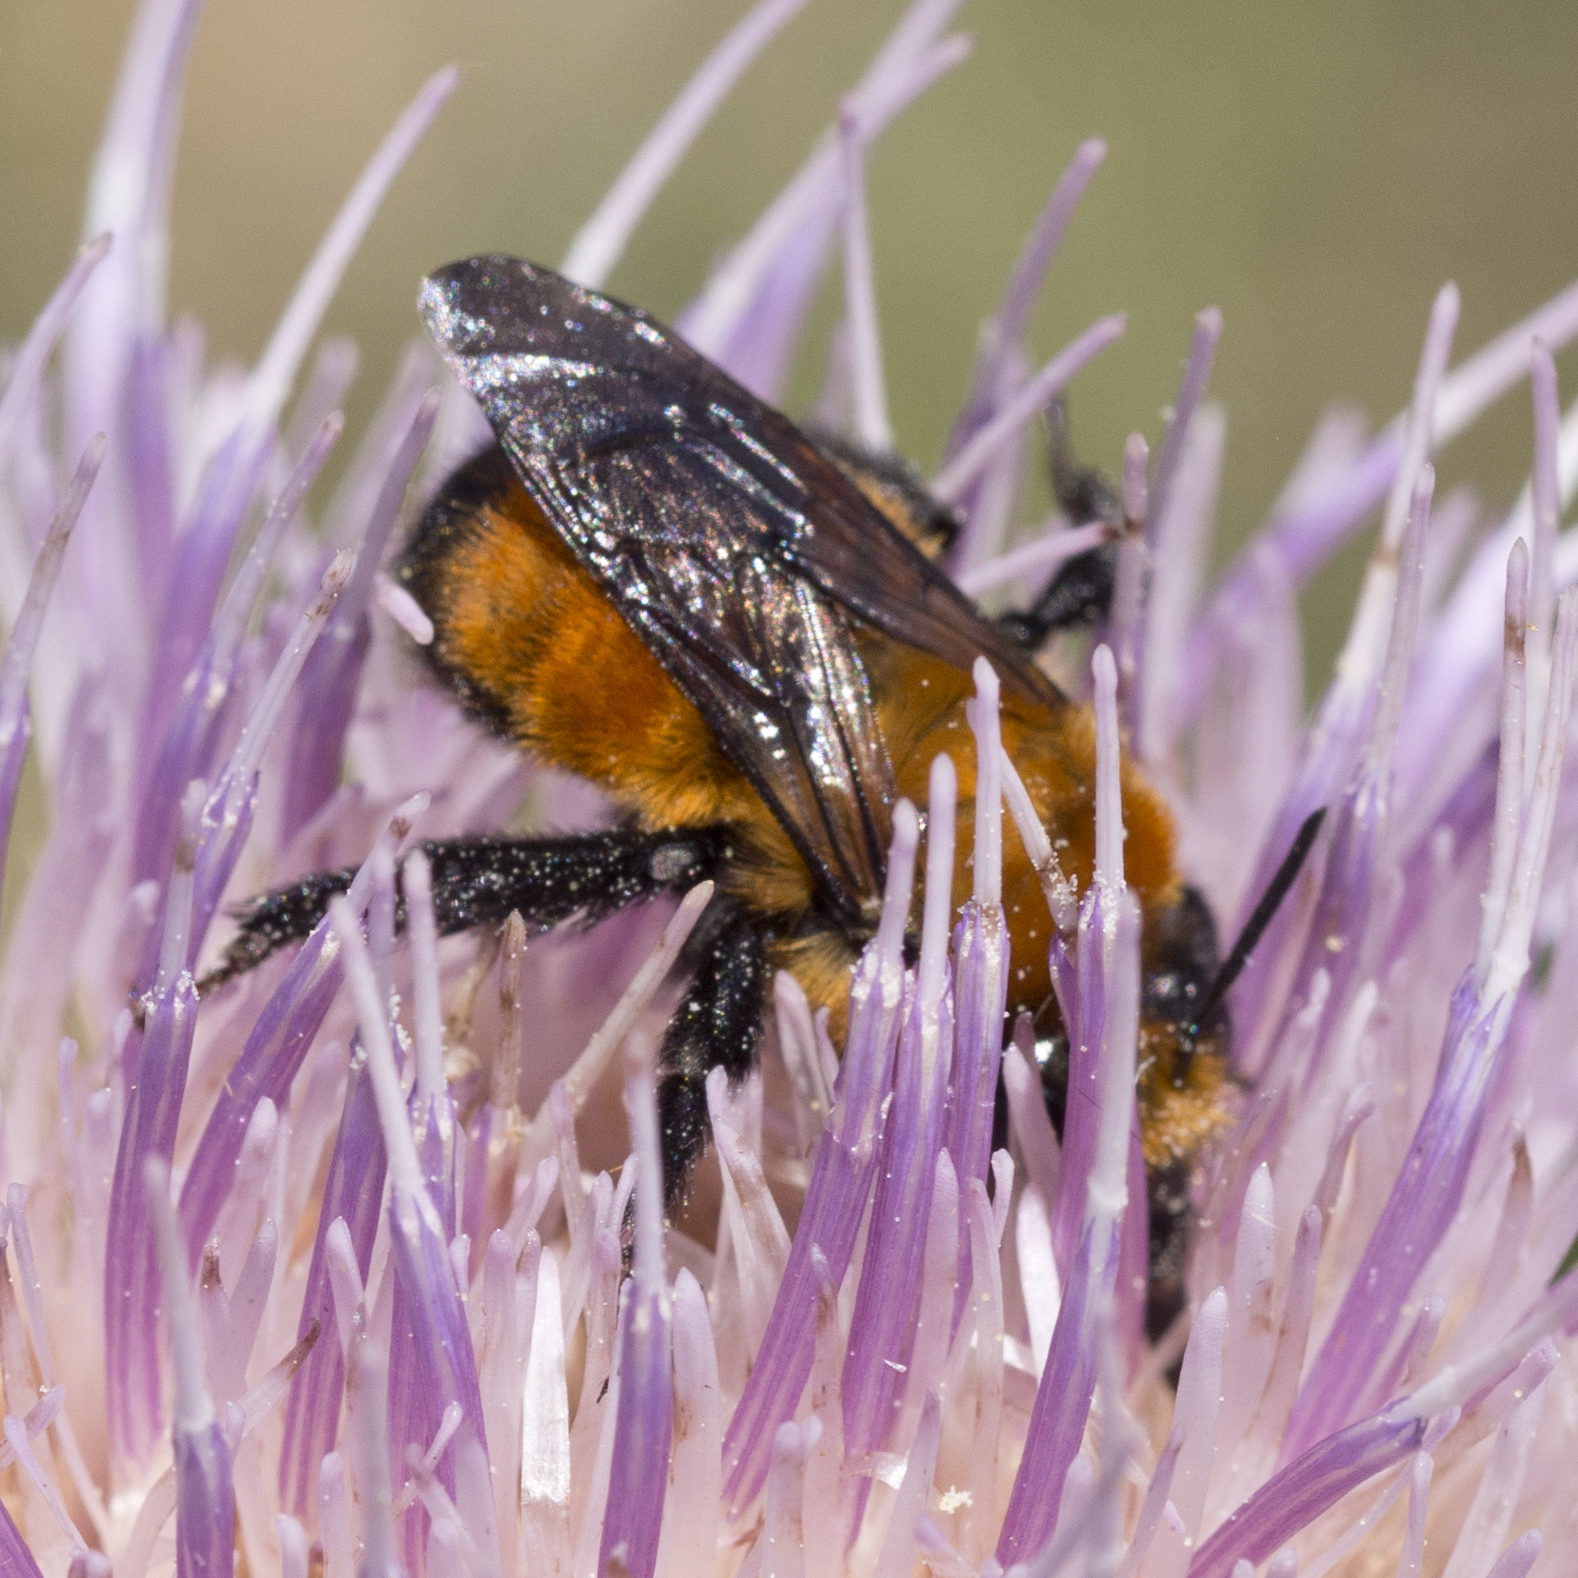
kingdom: Animalia
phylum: Arthropoda
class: Insecta
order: Hymenoptera
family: Apidae
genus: Anthophora
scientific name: Anthophora bomboides
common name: Bumble-bee-mimic digger bee
